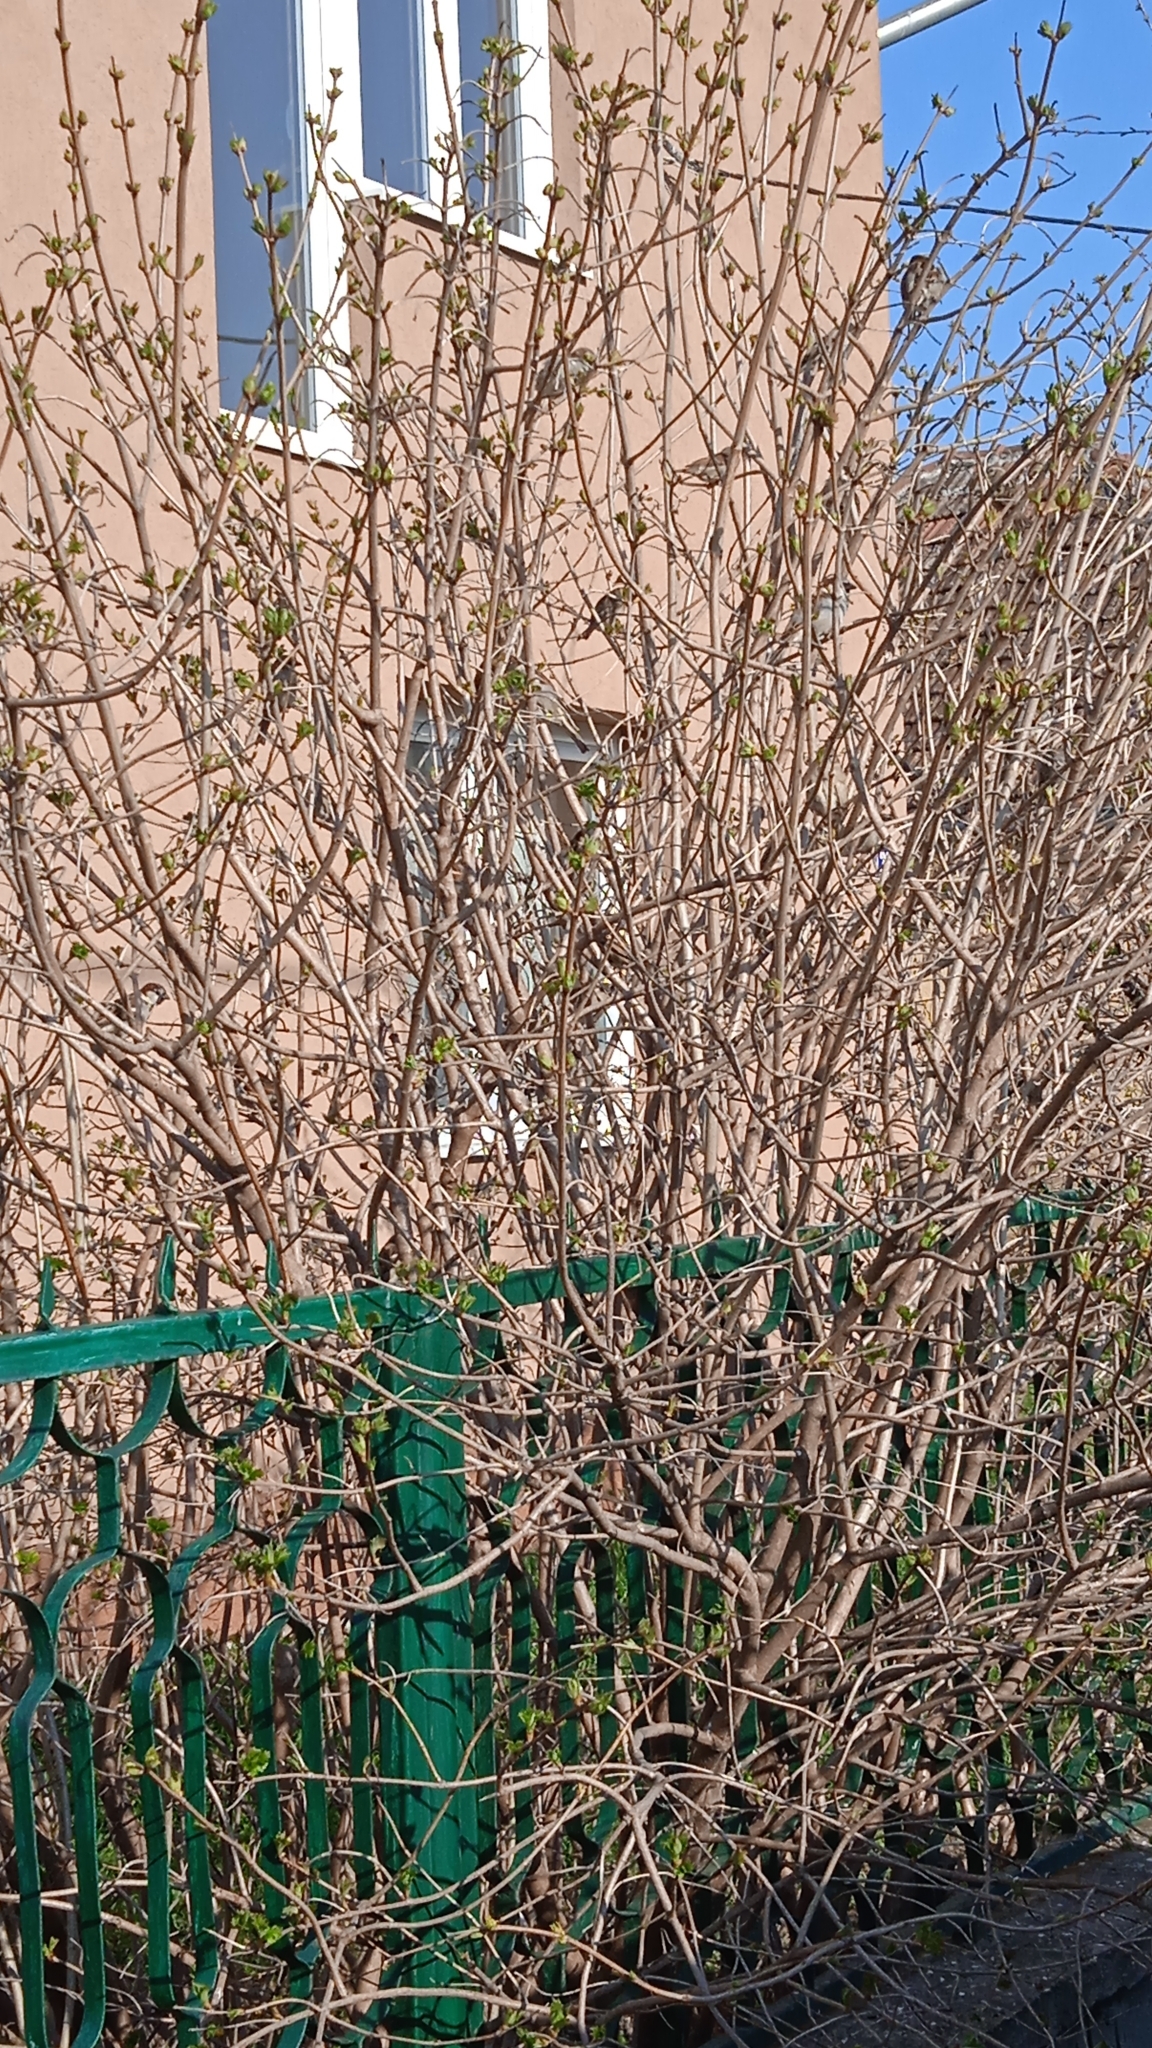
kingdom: Animalia
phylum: Chordata
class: Aves
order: Passeriformes
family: Passeridae
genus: Passer
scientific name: Passer domesticus
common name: House sparrow
